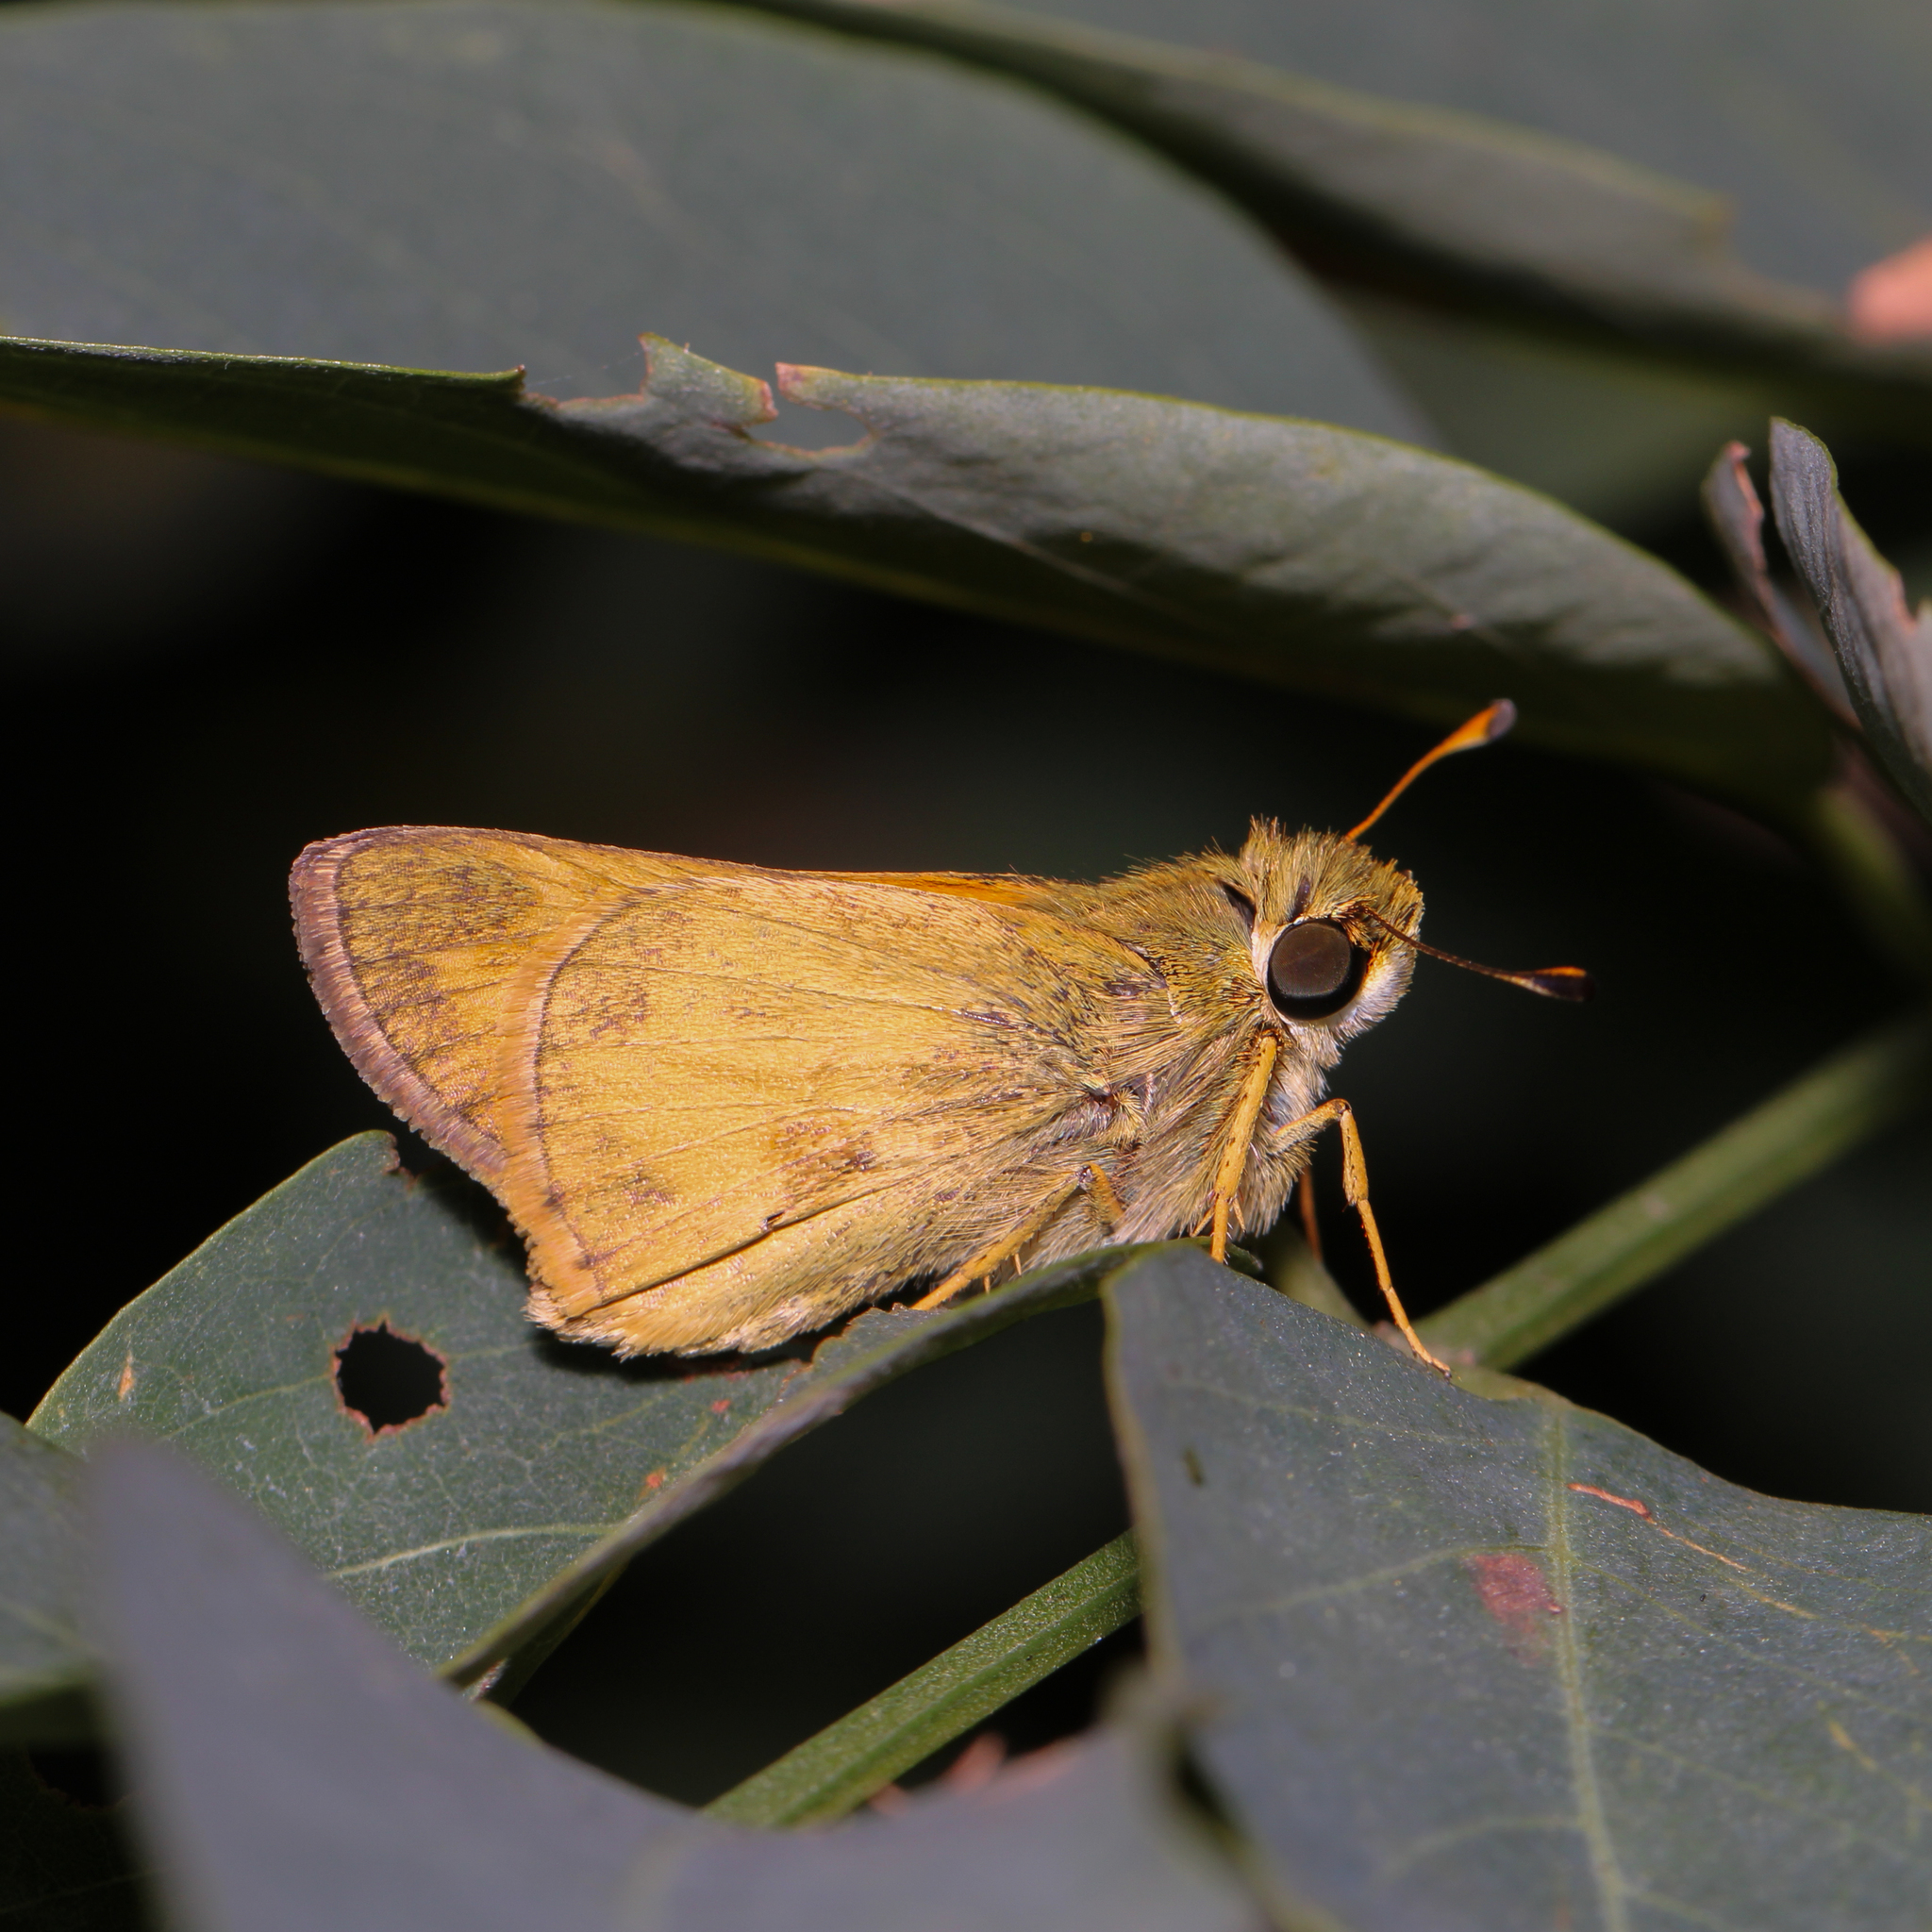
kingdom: Animalia
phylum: Arthropoda
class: Insecta
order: Lepidoptera
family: Hesperiidae
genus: Atalopedes
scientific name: Atalopedes
